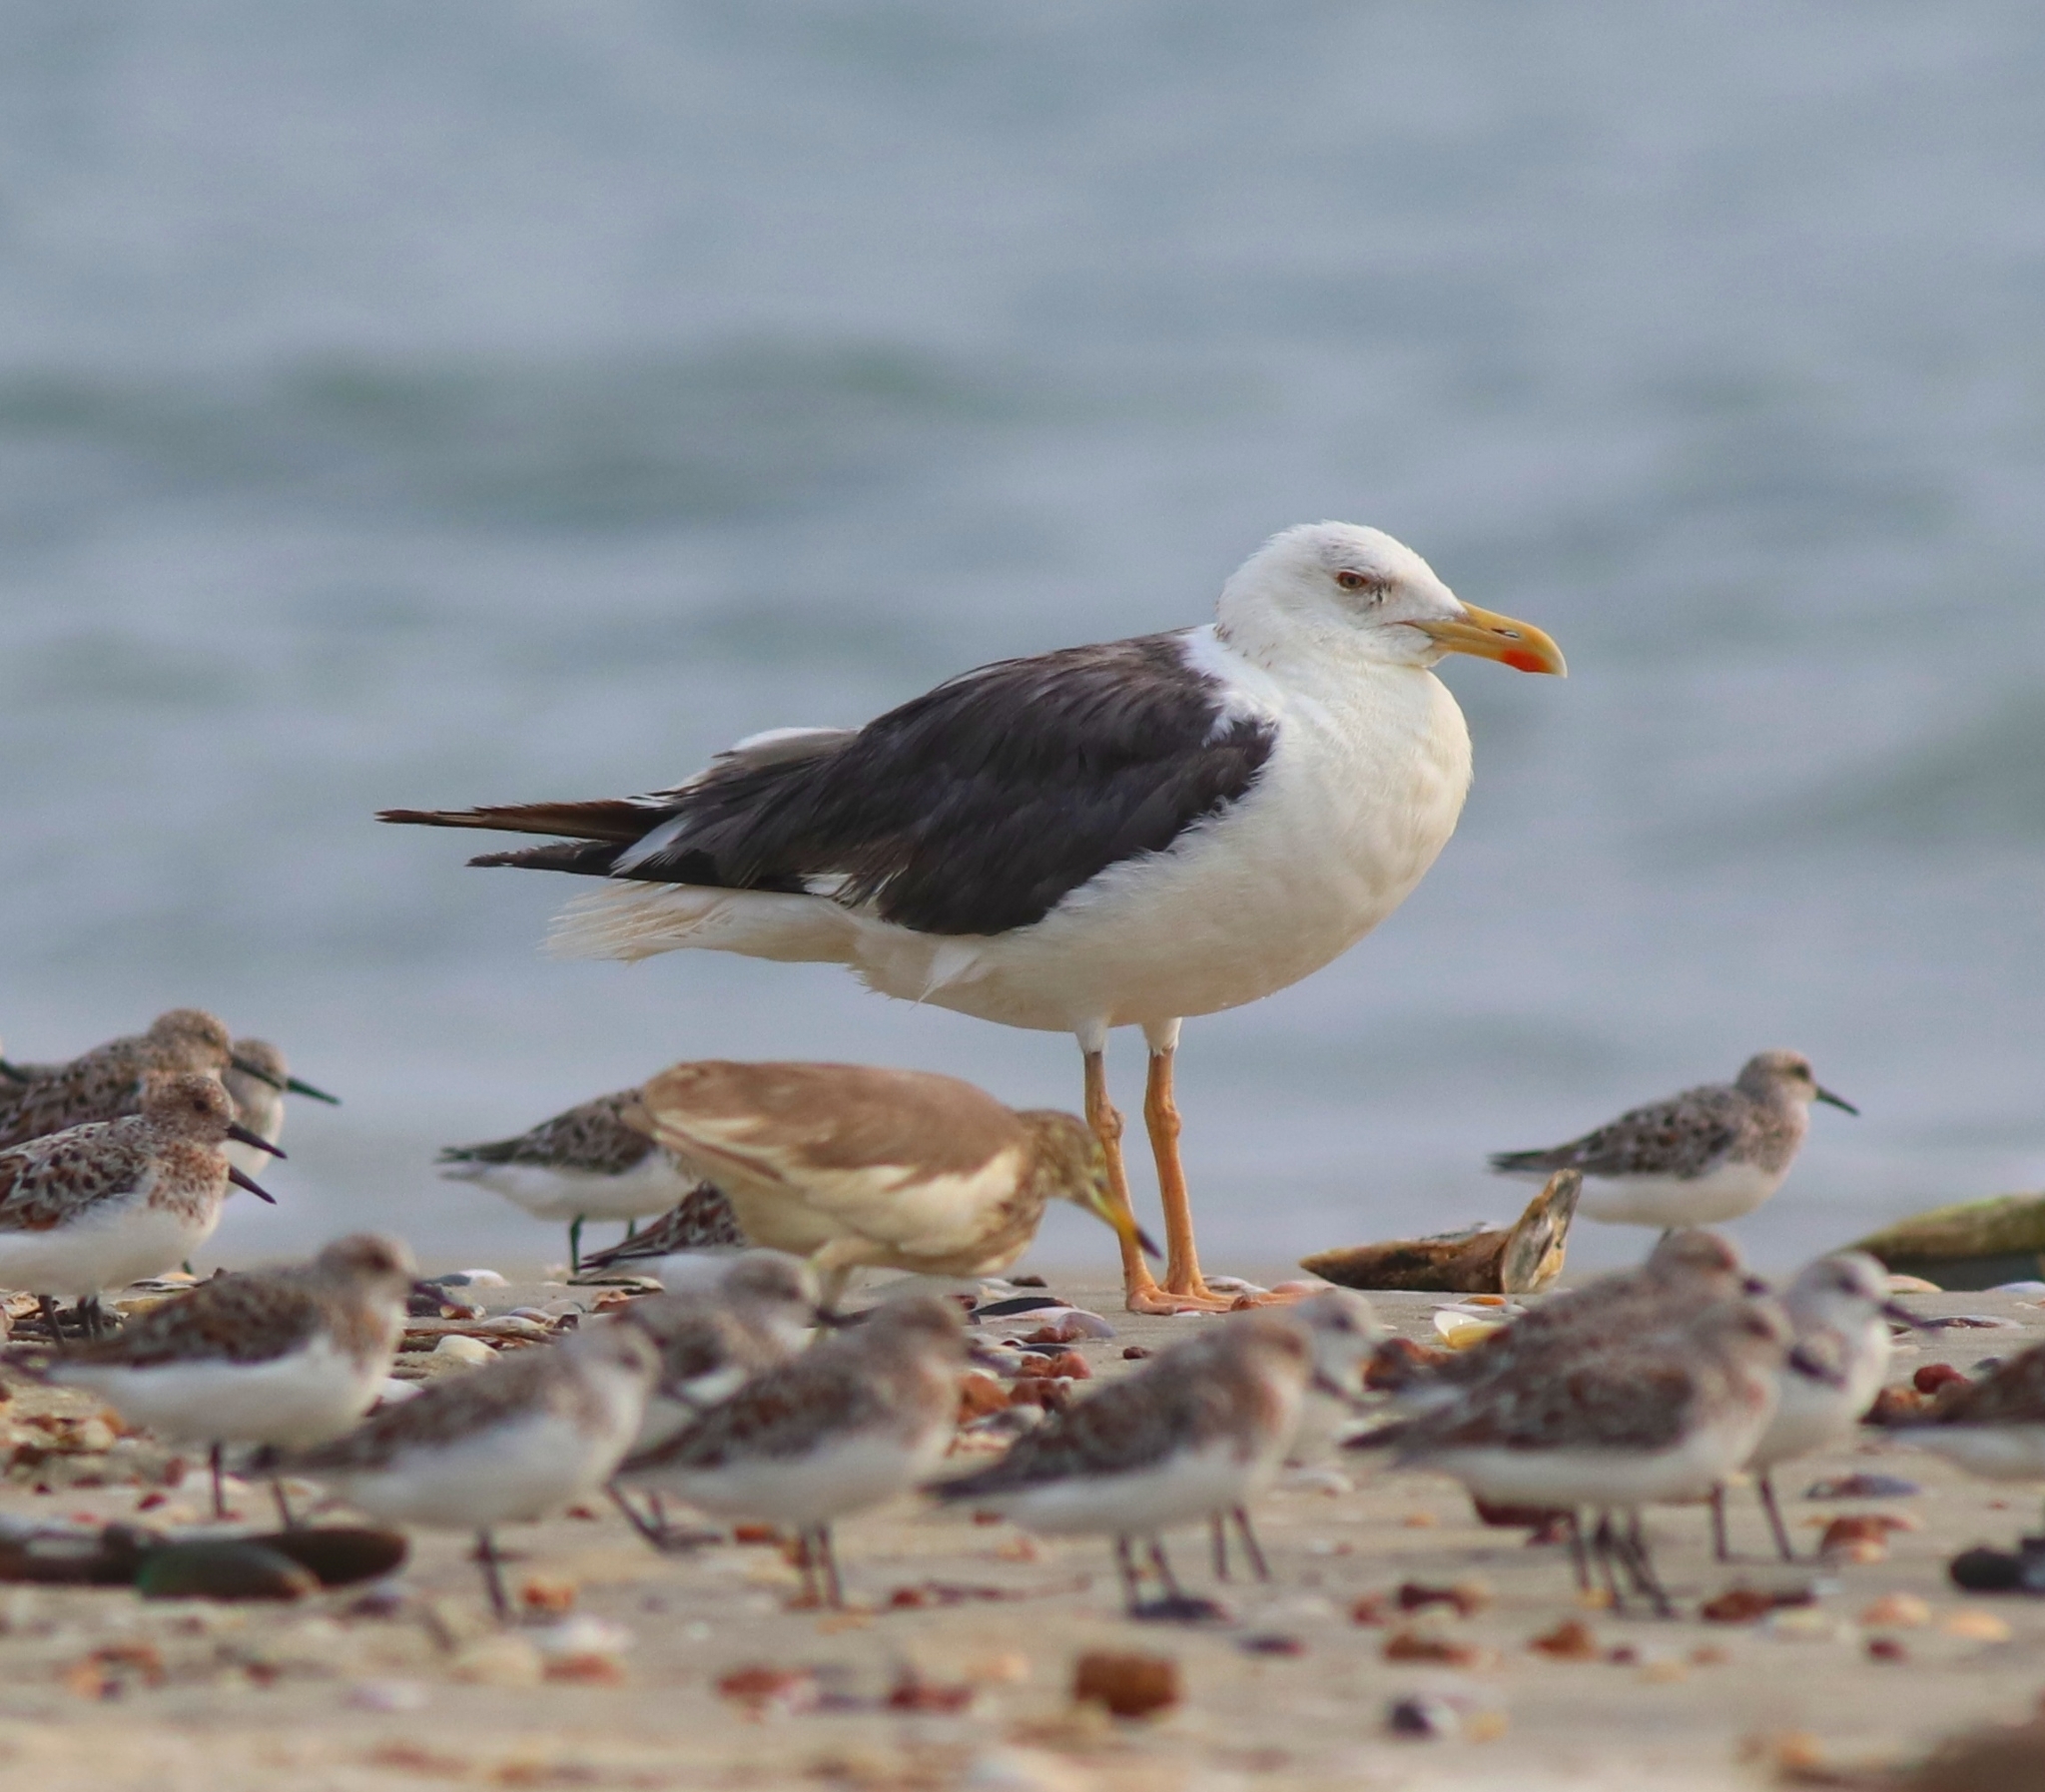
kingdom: Animalia
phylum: Chordata
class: Aves
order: Charadriiformes
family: Laridae
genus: Larus
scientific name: Larus fuscus
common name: Lesser black-backed gull
